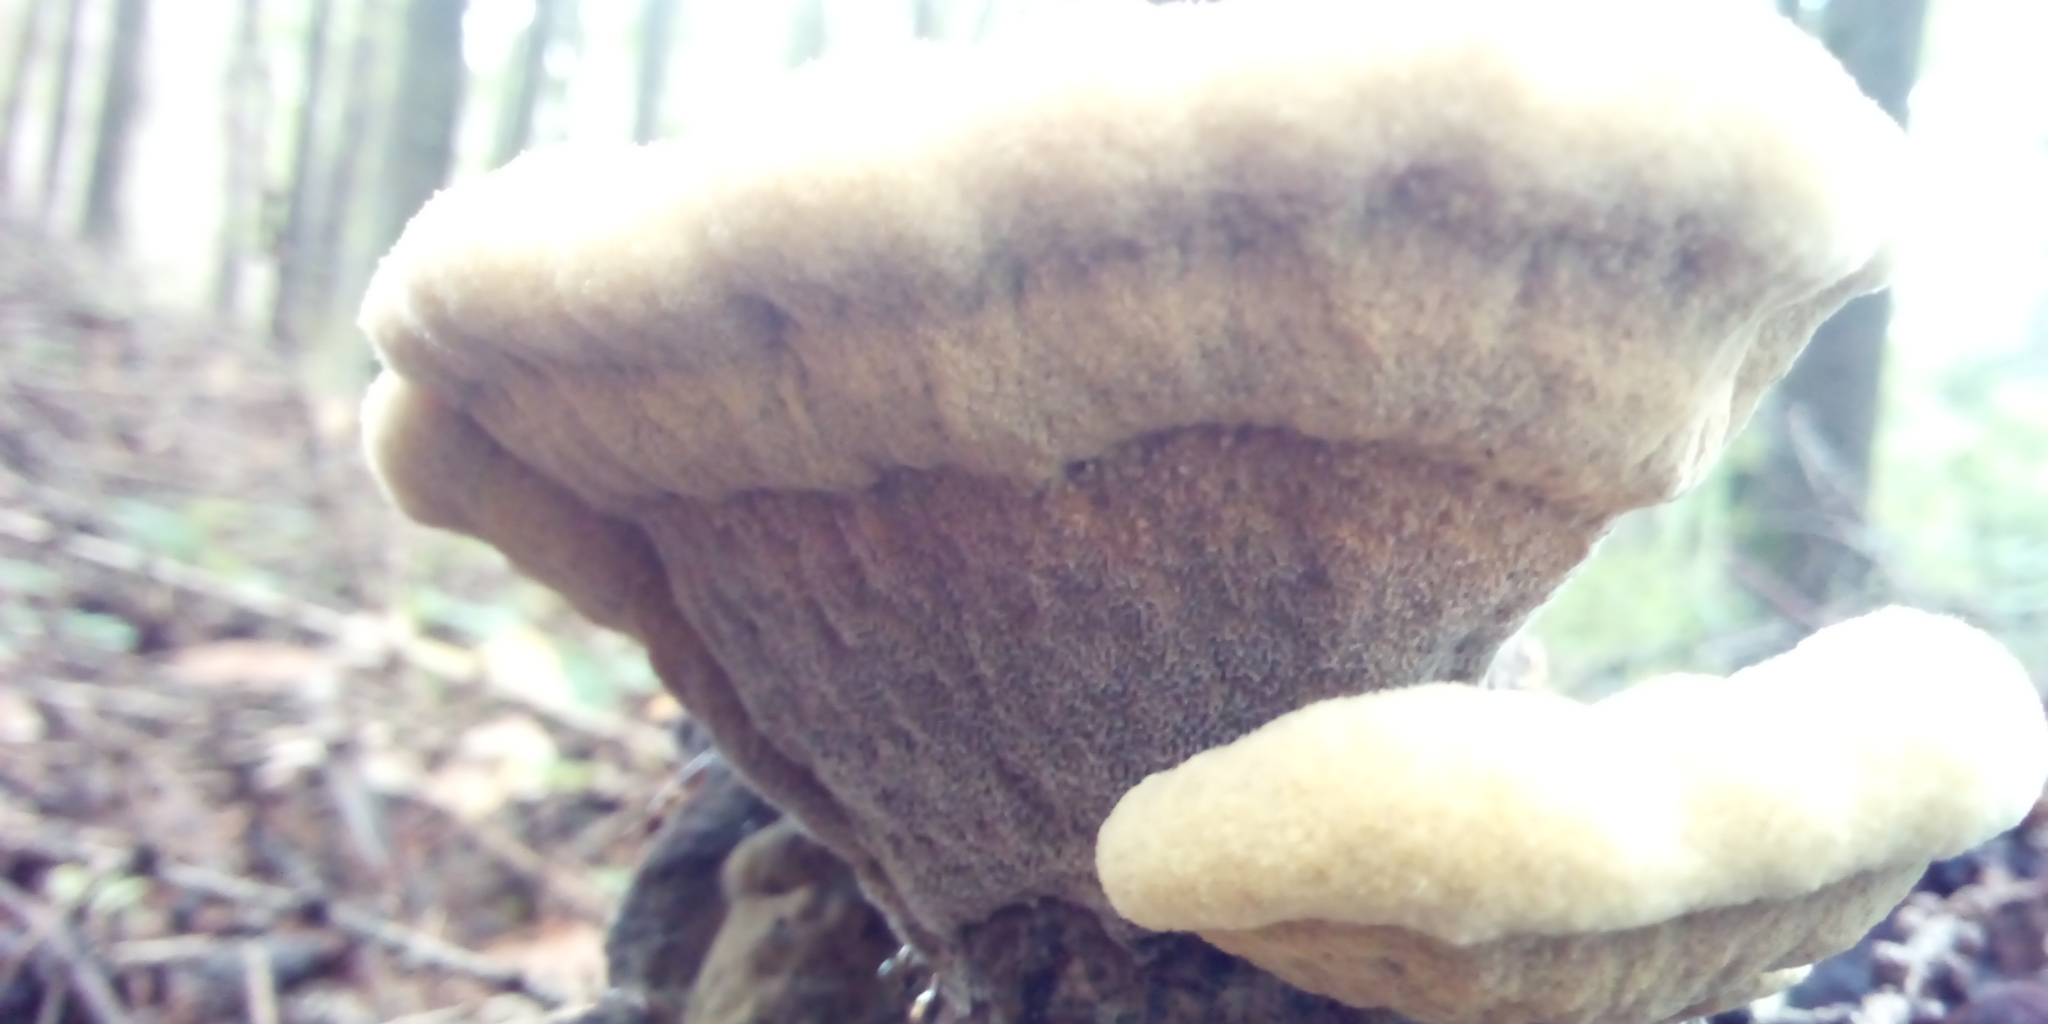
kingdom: Fungi
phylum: Basidiomycota
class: Agaricomycetes
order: Polyporales
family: Laetiporaceae
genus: Phaeolus
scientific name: Phaeolus schweinitzii
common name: Dyer's mazegill
